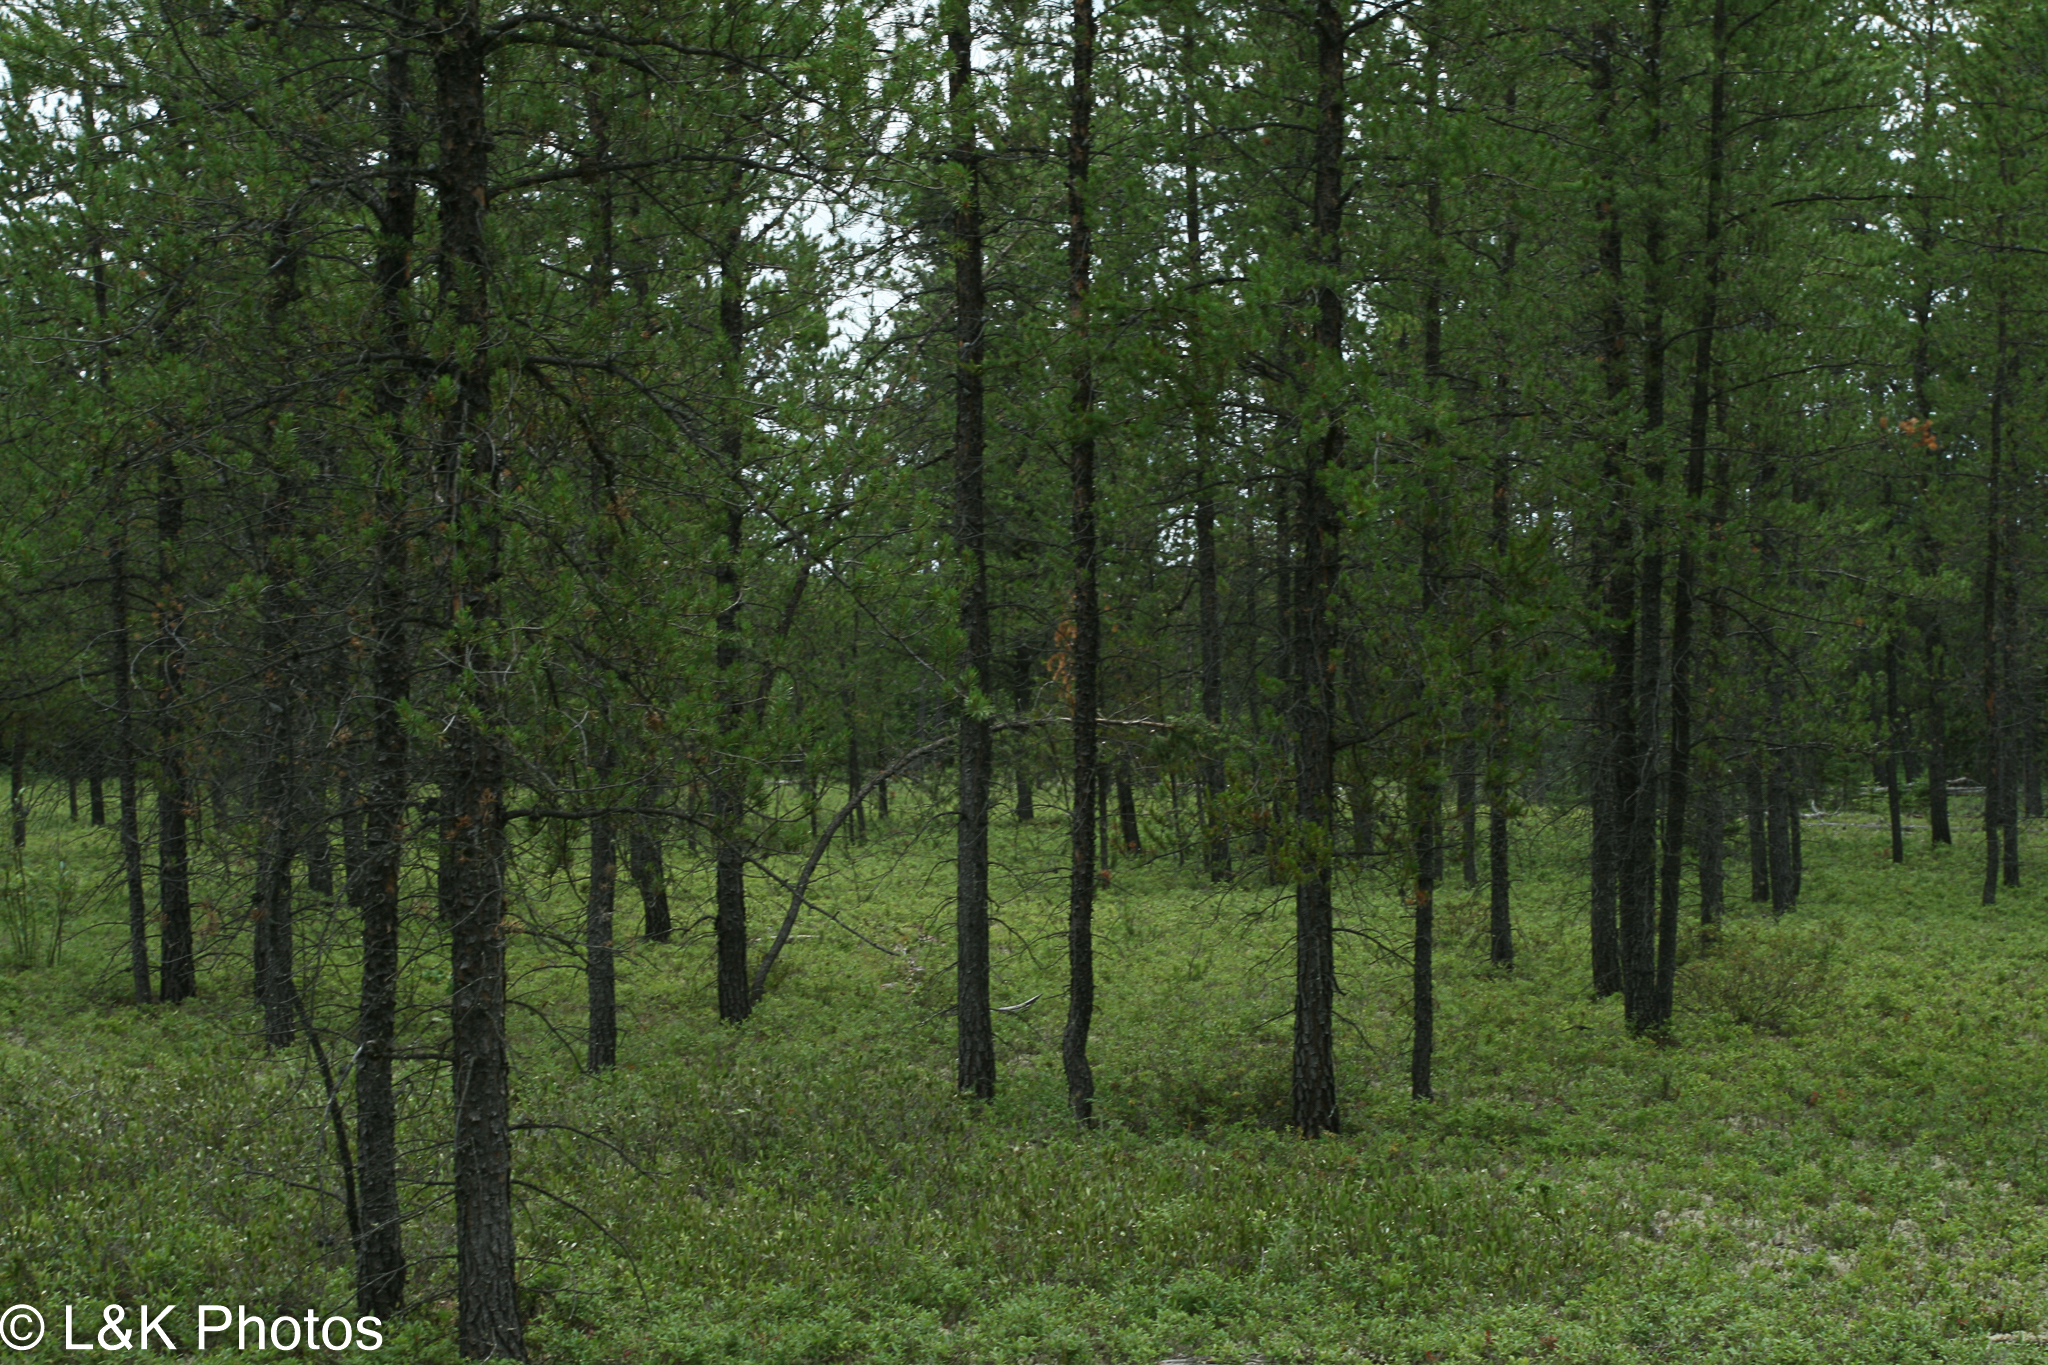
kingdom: Plantae
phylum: Tracheophyta
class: Liliopsida
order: Asparagales
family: Orchidaceae
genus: Spiranthes
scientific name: Spiranthes lacera
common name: Northern slender ladies'-tresses
